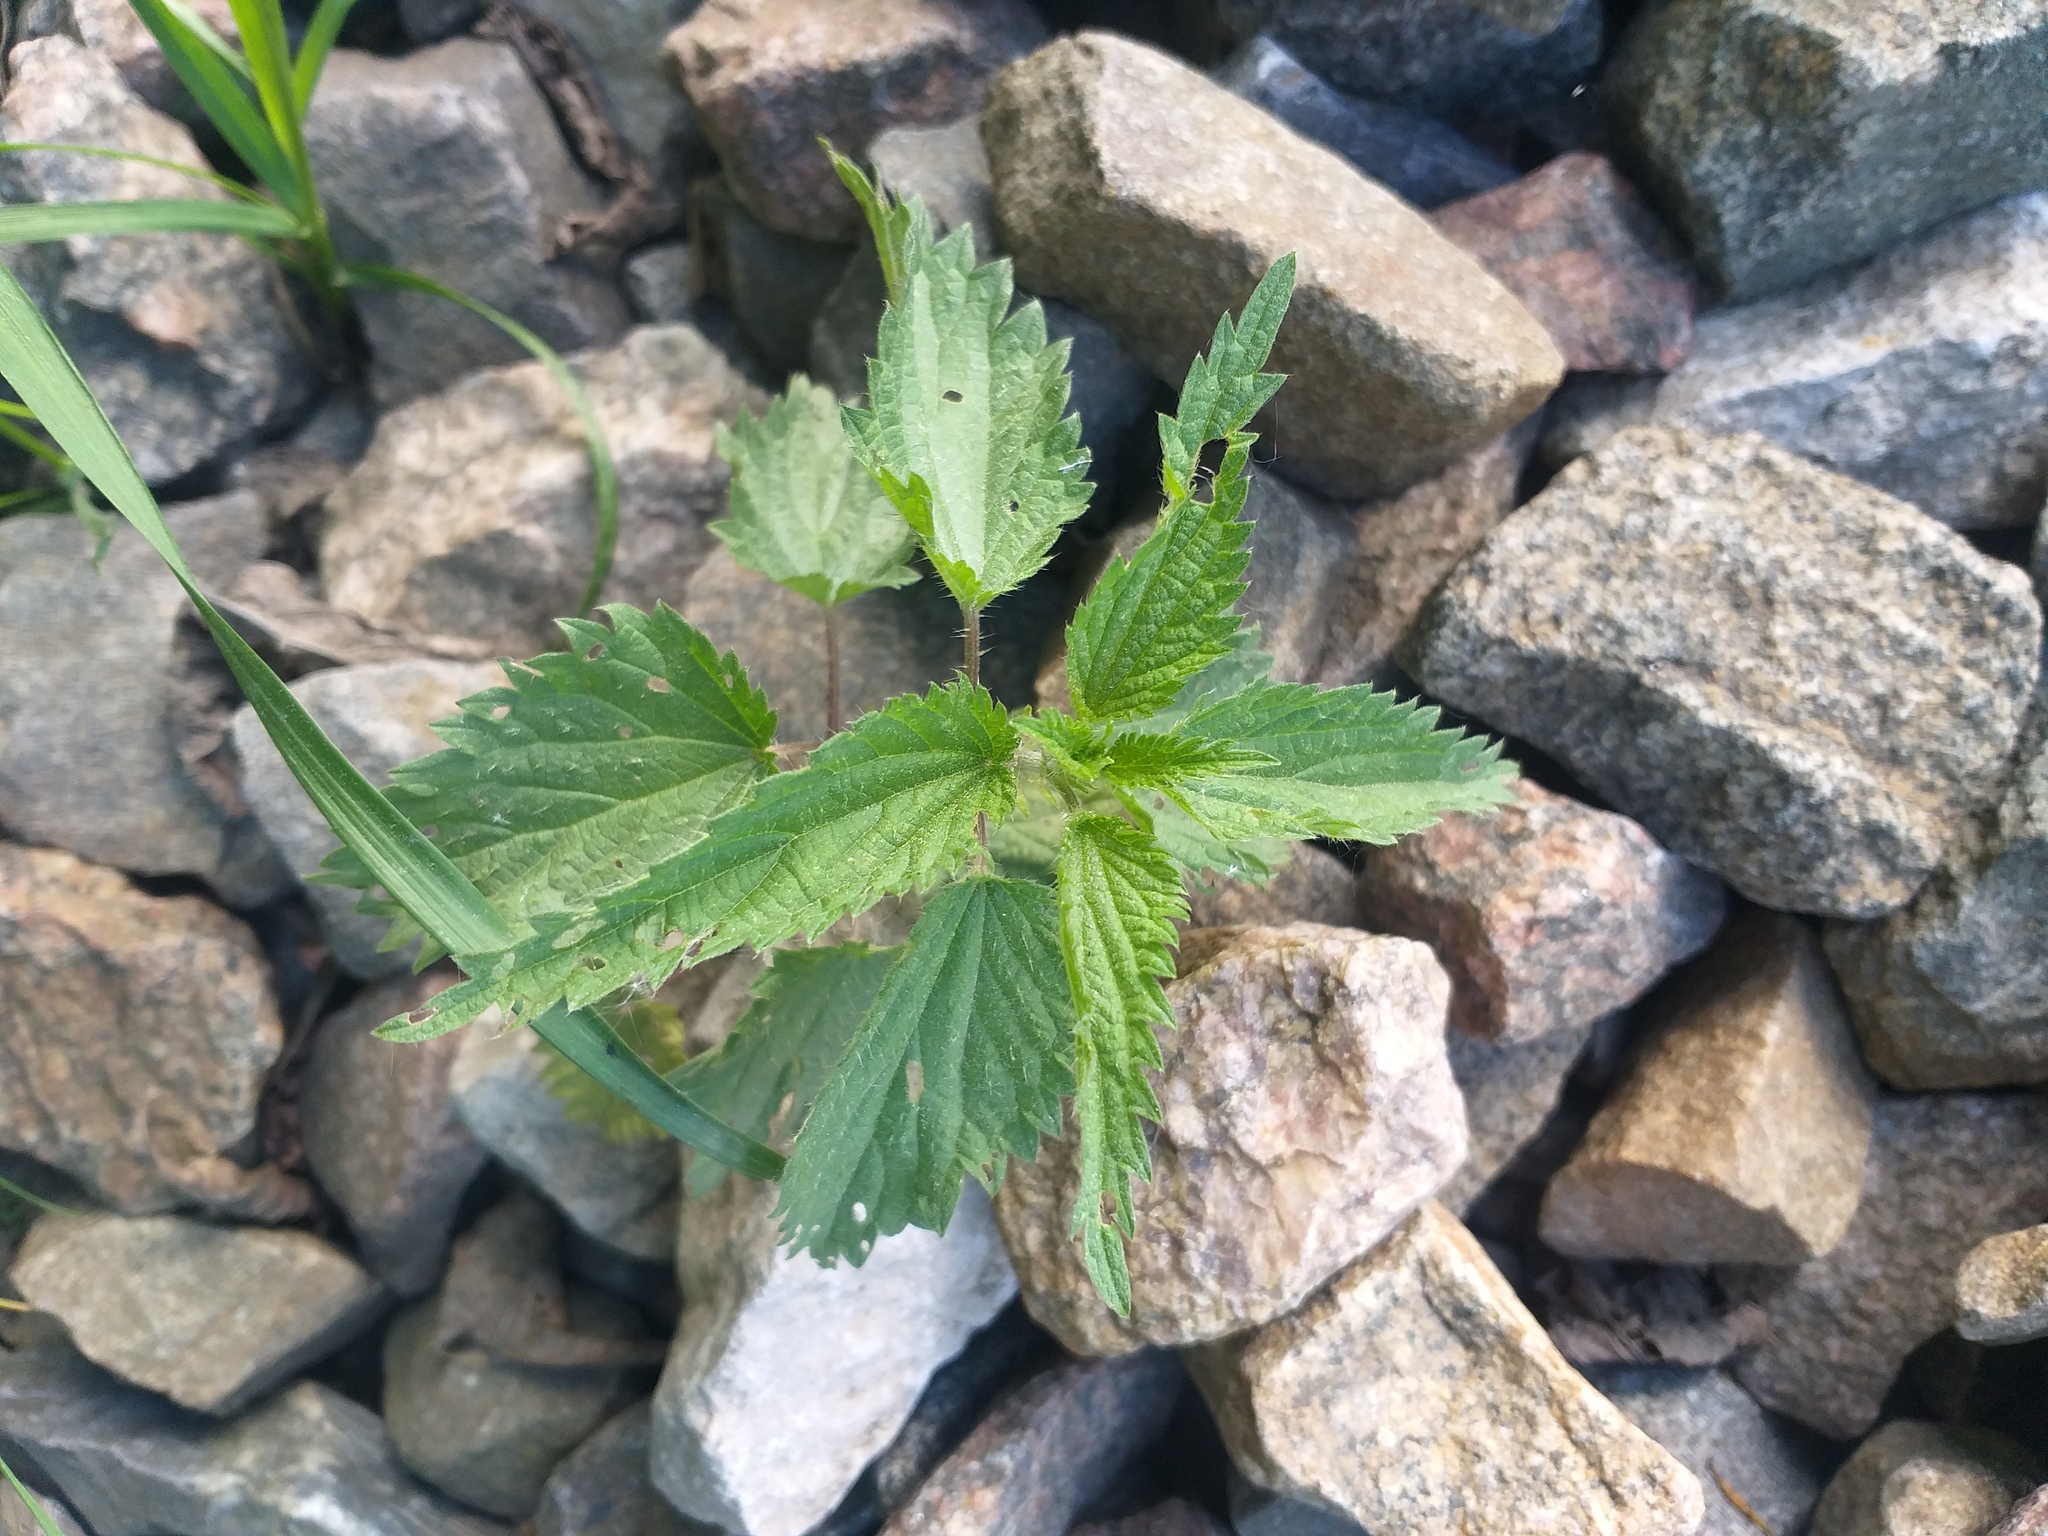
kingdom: Plantae
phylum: Tracheophyta
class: Magnoliopsida
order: Rosales
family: Urticaceae
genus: Urtica
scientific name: Urtica dioica
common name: Common nettle
